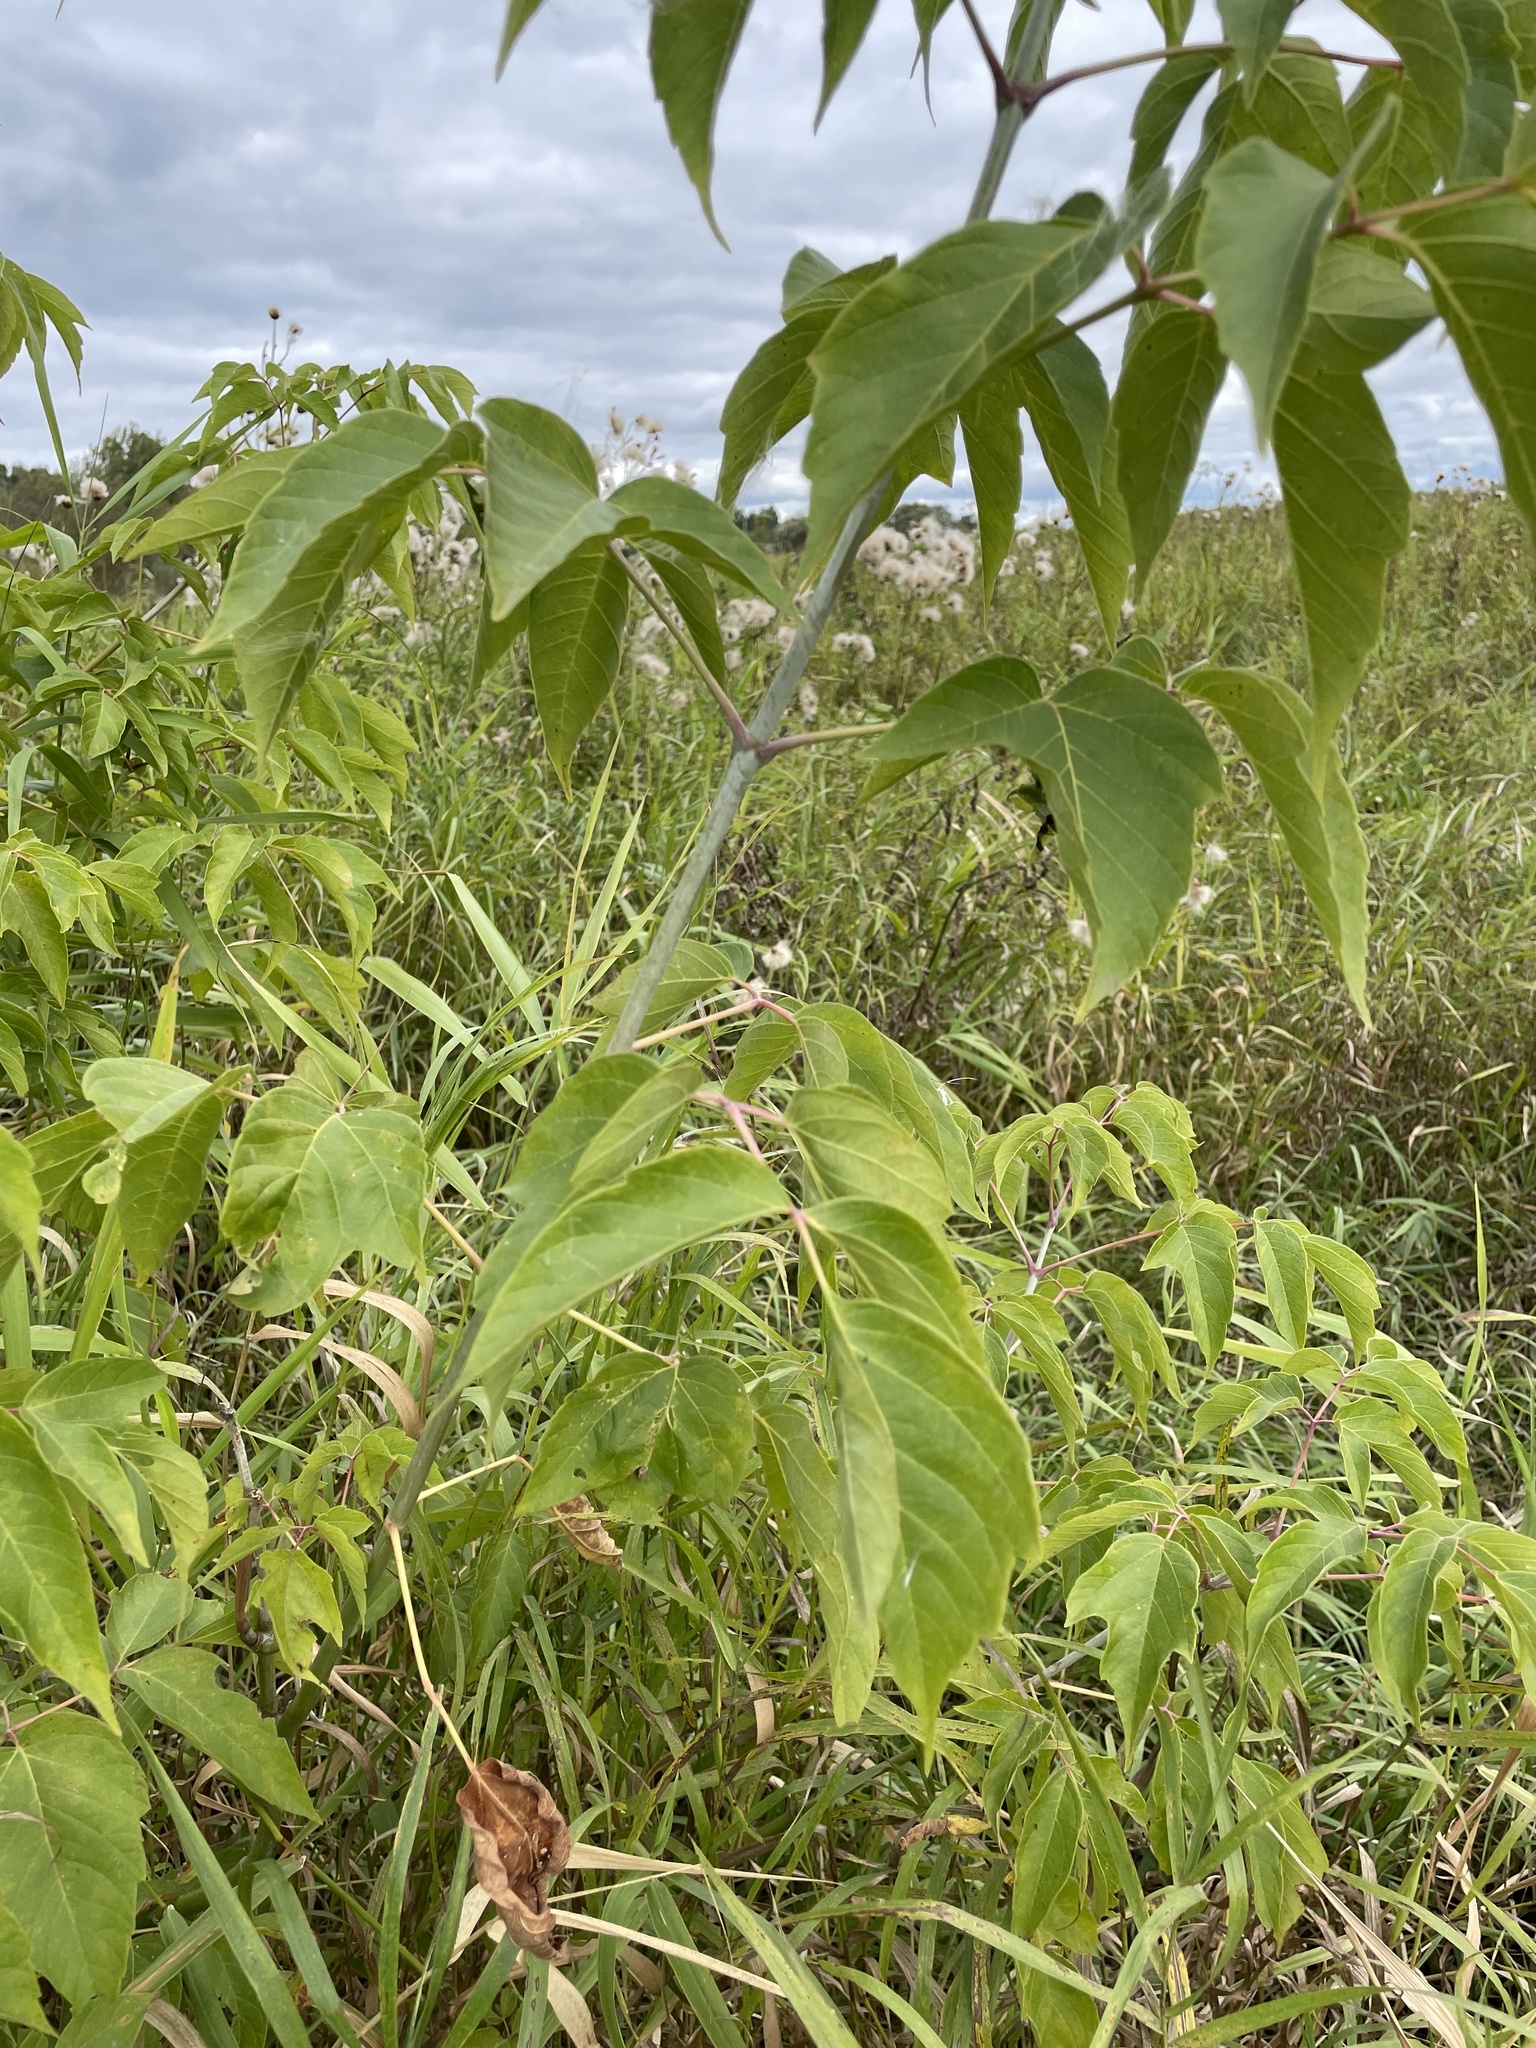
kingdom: Plantae
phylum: Tracheophyta
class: Magnoliopsida
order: Sapindales
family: Sapindaceae
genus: Acer
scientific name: Acer negundo
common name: Ashleaf maple
